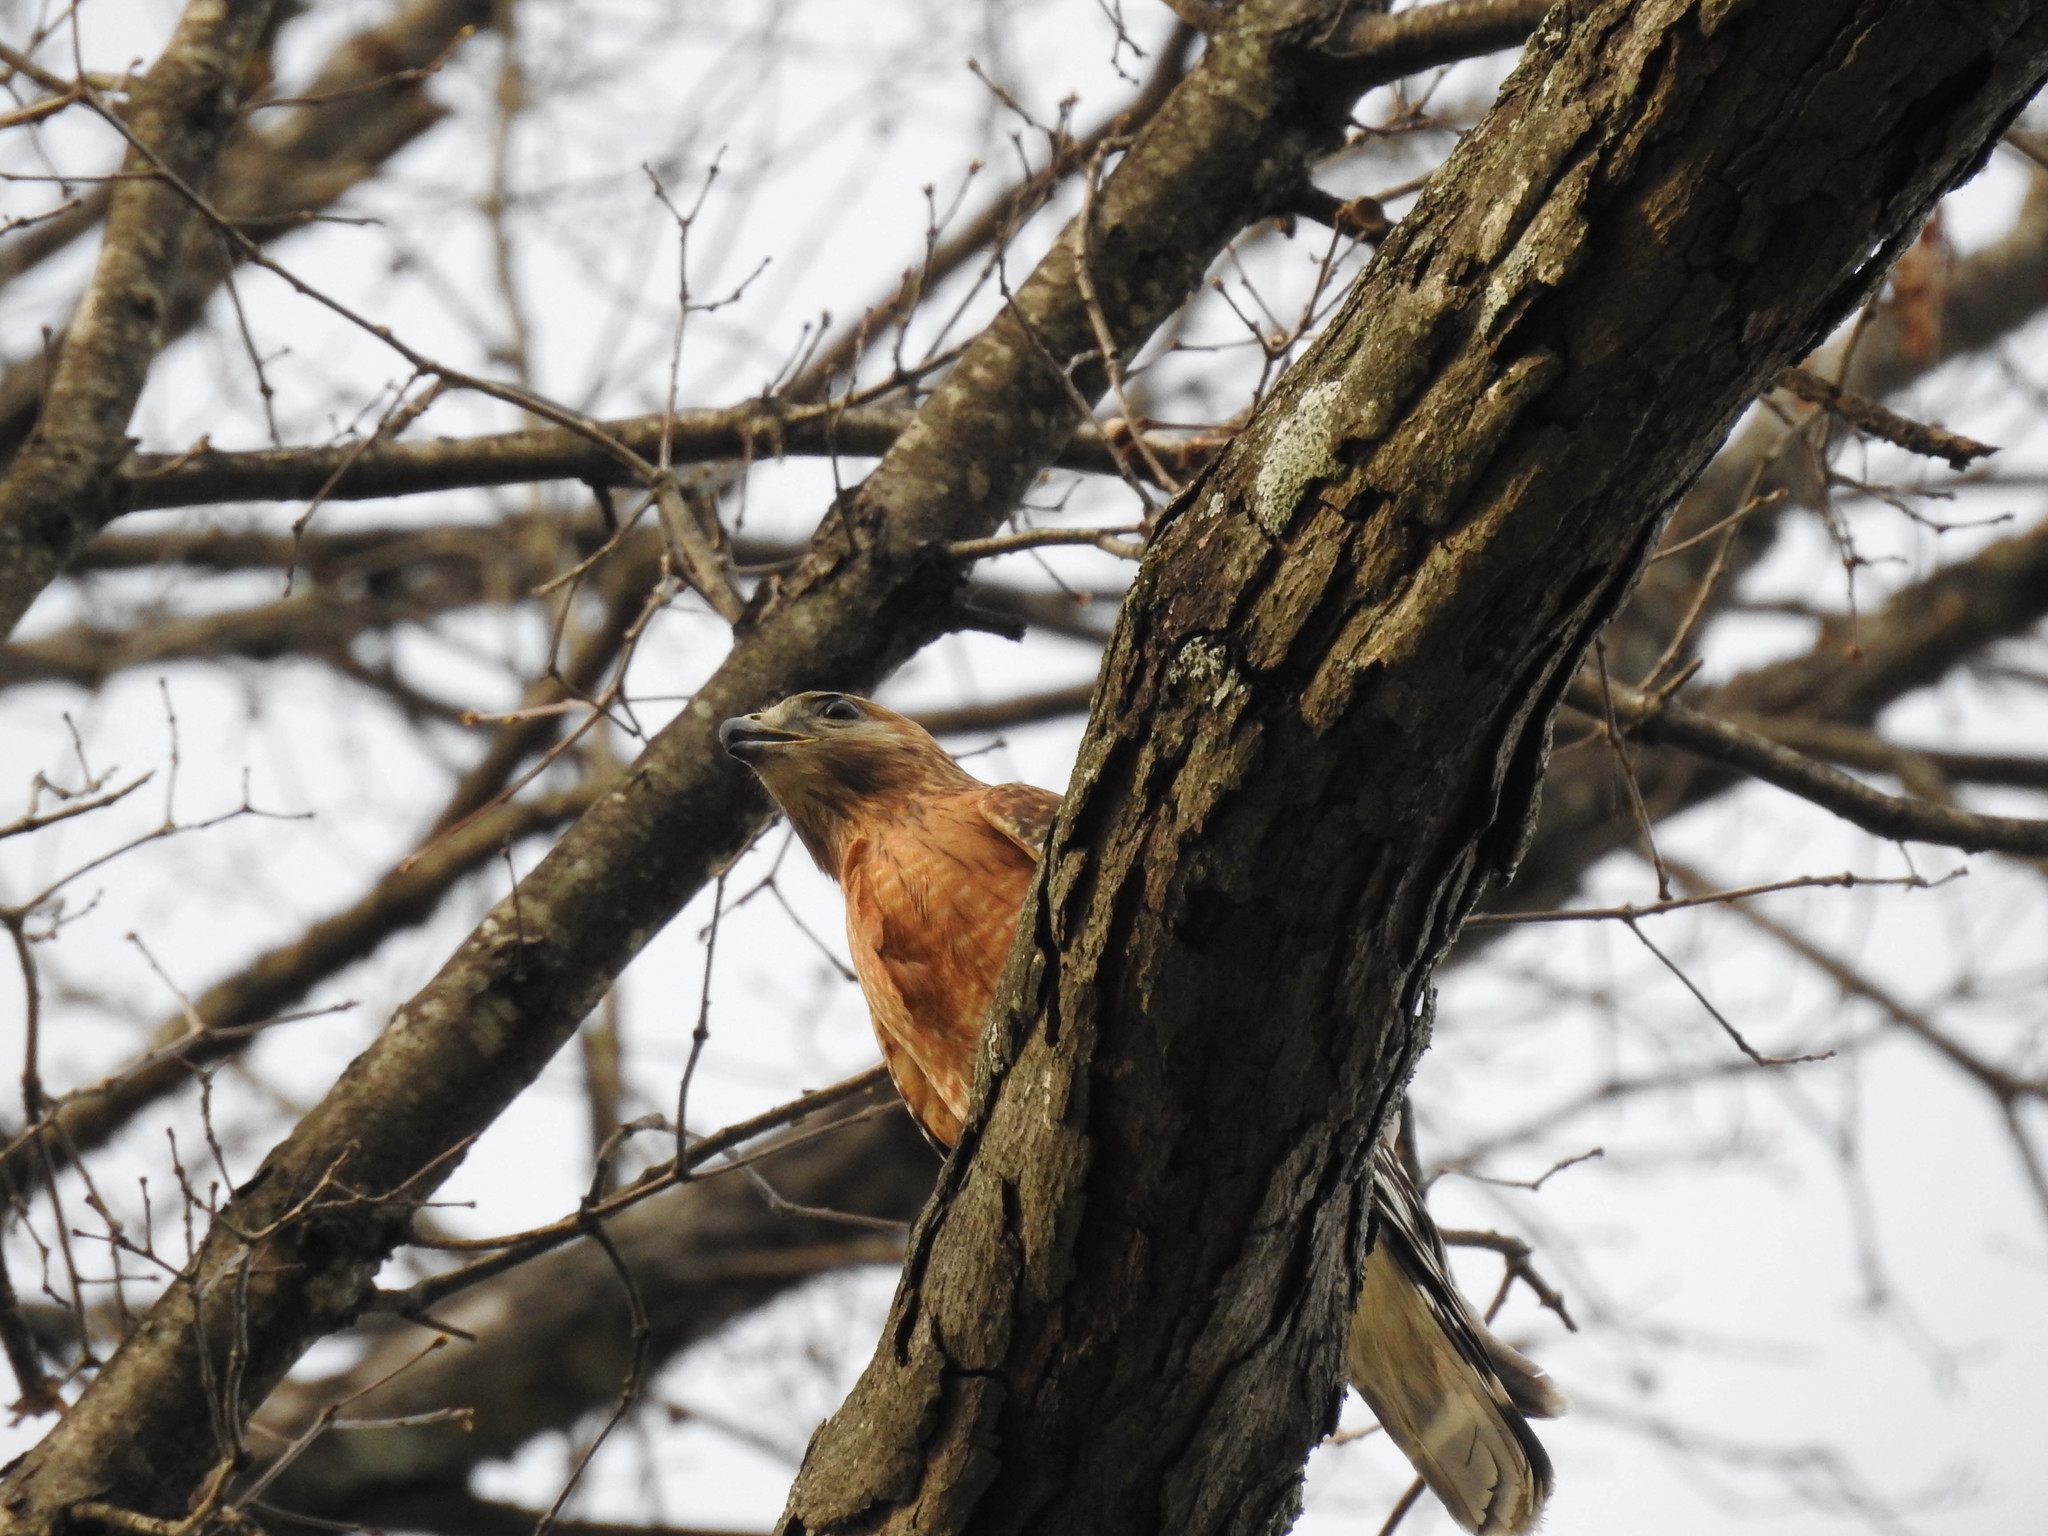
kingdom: Animalia
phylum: Chordata
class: Aves
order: Accipitriformes
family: Accipitridae
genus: Buteo
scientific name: Buteo lineatus
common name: Red-shouldered hawk
